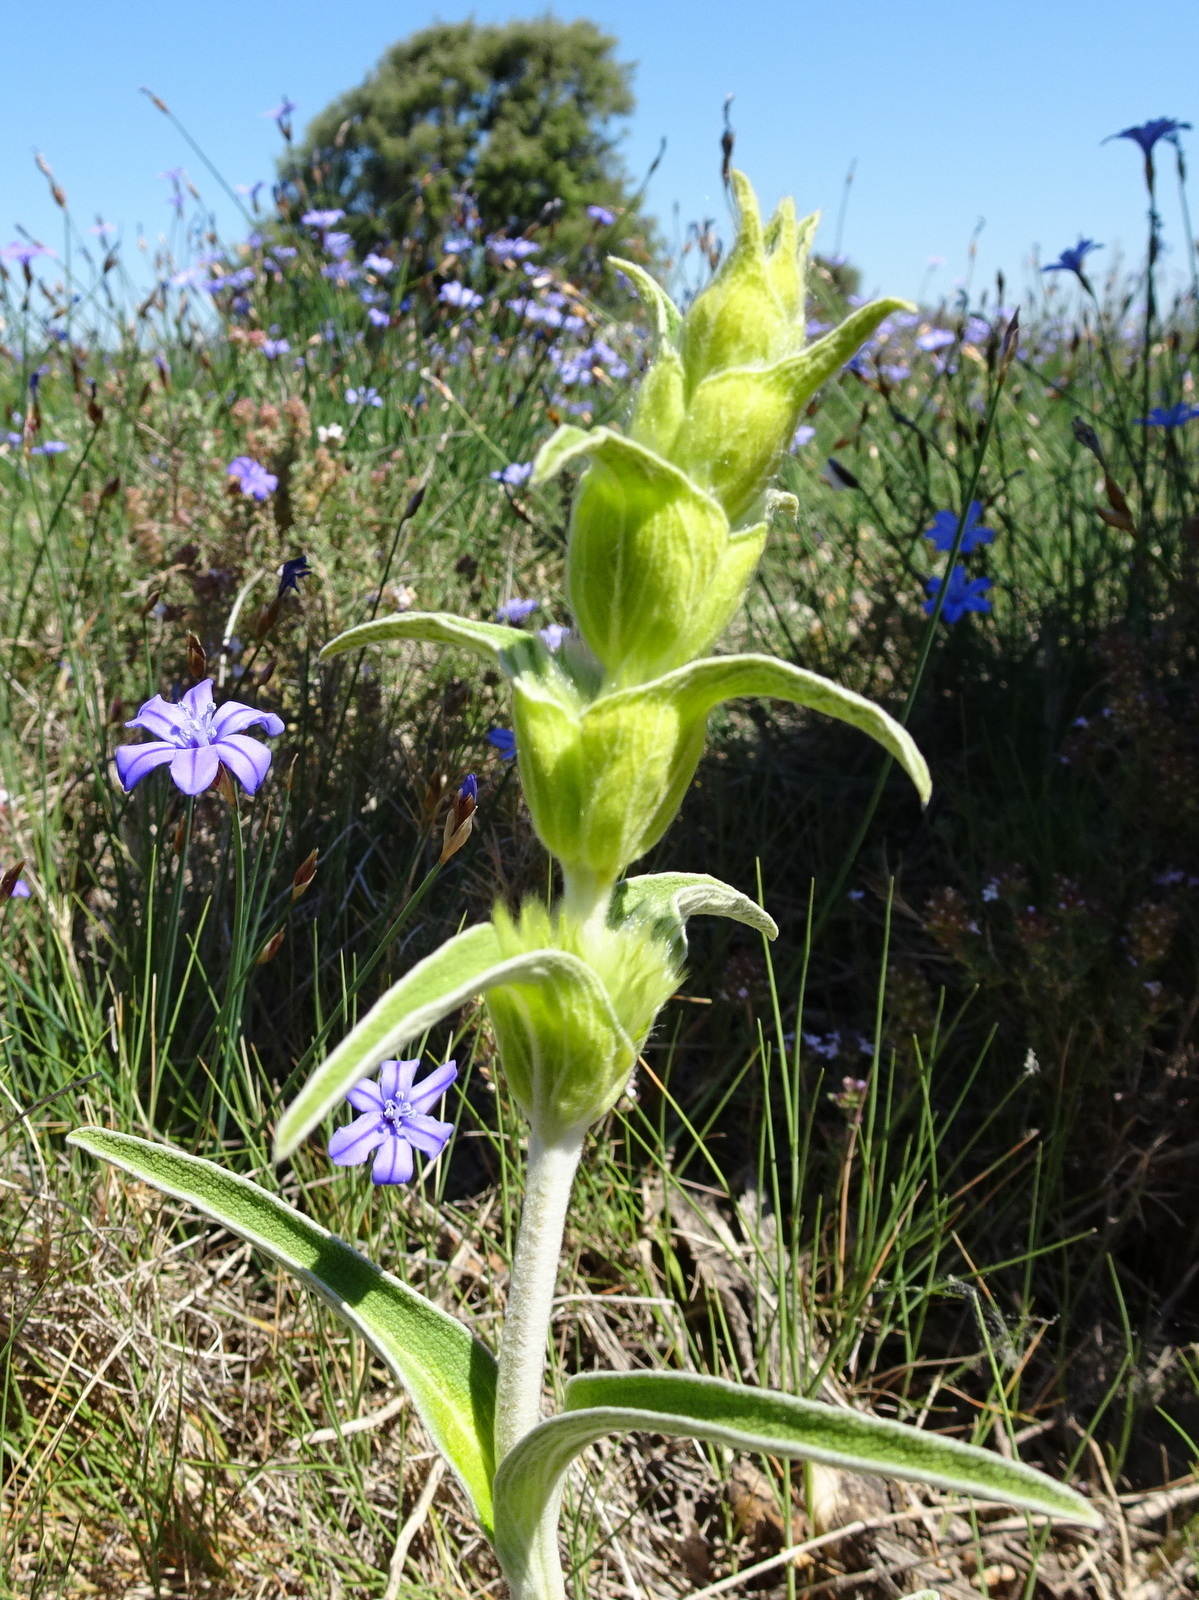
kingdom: Plantae
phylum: Tracheophyta
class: Magnoliopsida
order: Lamiales
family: Lamiaceae
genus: Phlomis
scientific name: Phlomis lychnitis
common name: Lampwickplant
